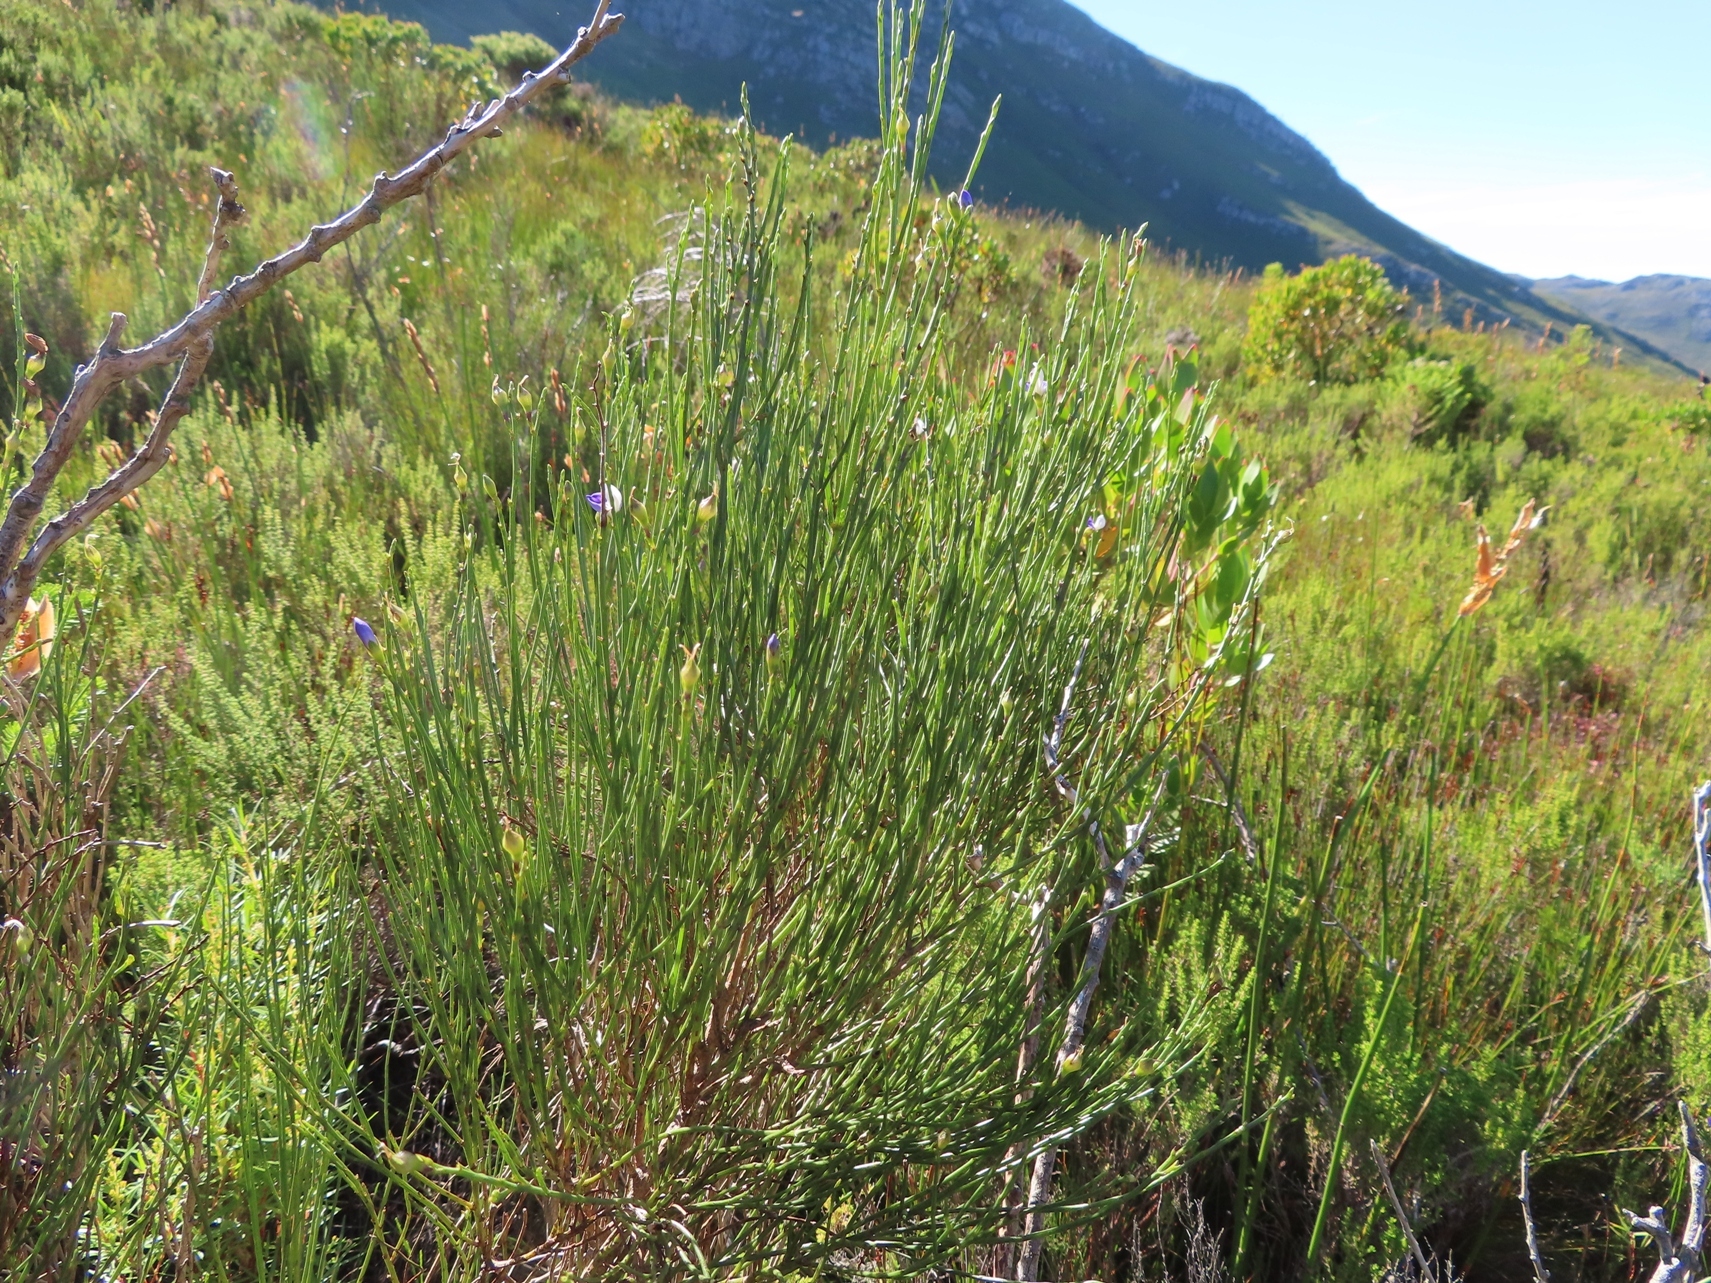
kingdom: Plantae
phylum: Tracheophyta
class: Magnoliopsida
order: Fabales
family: Fabaceae
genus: Psoralea
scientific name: Psoralea usitata
